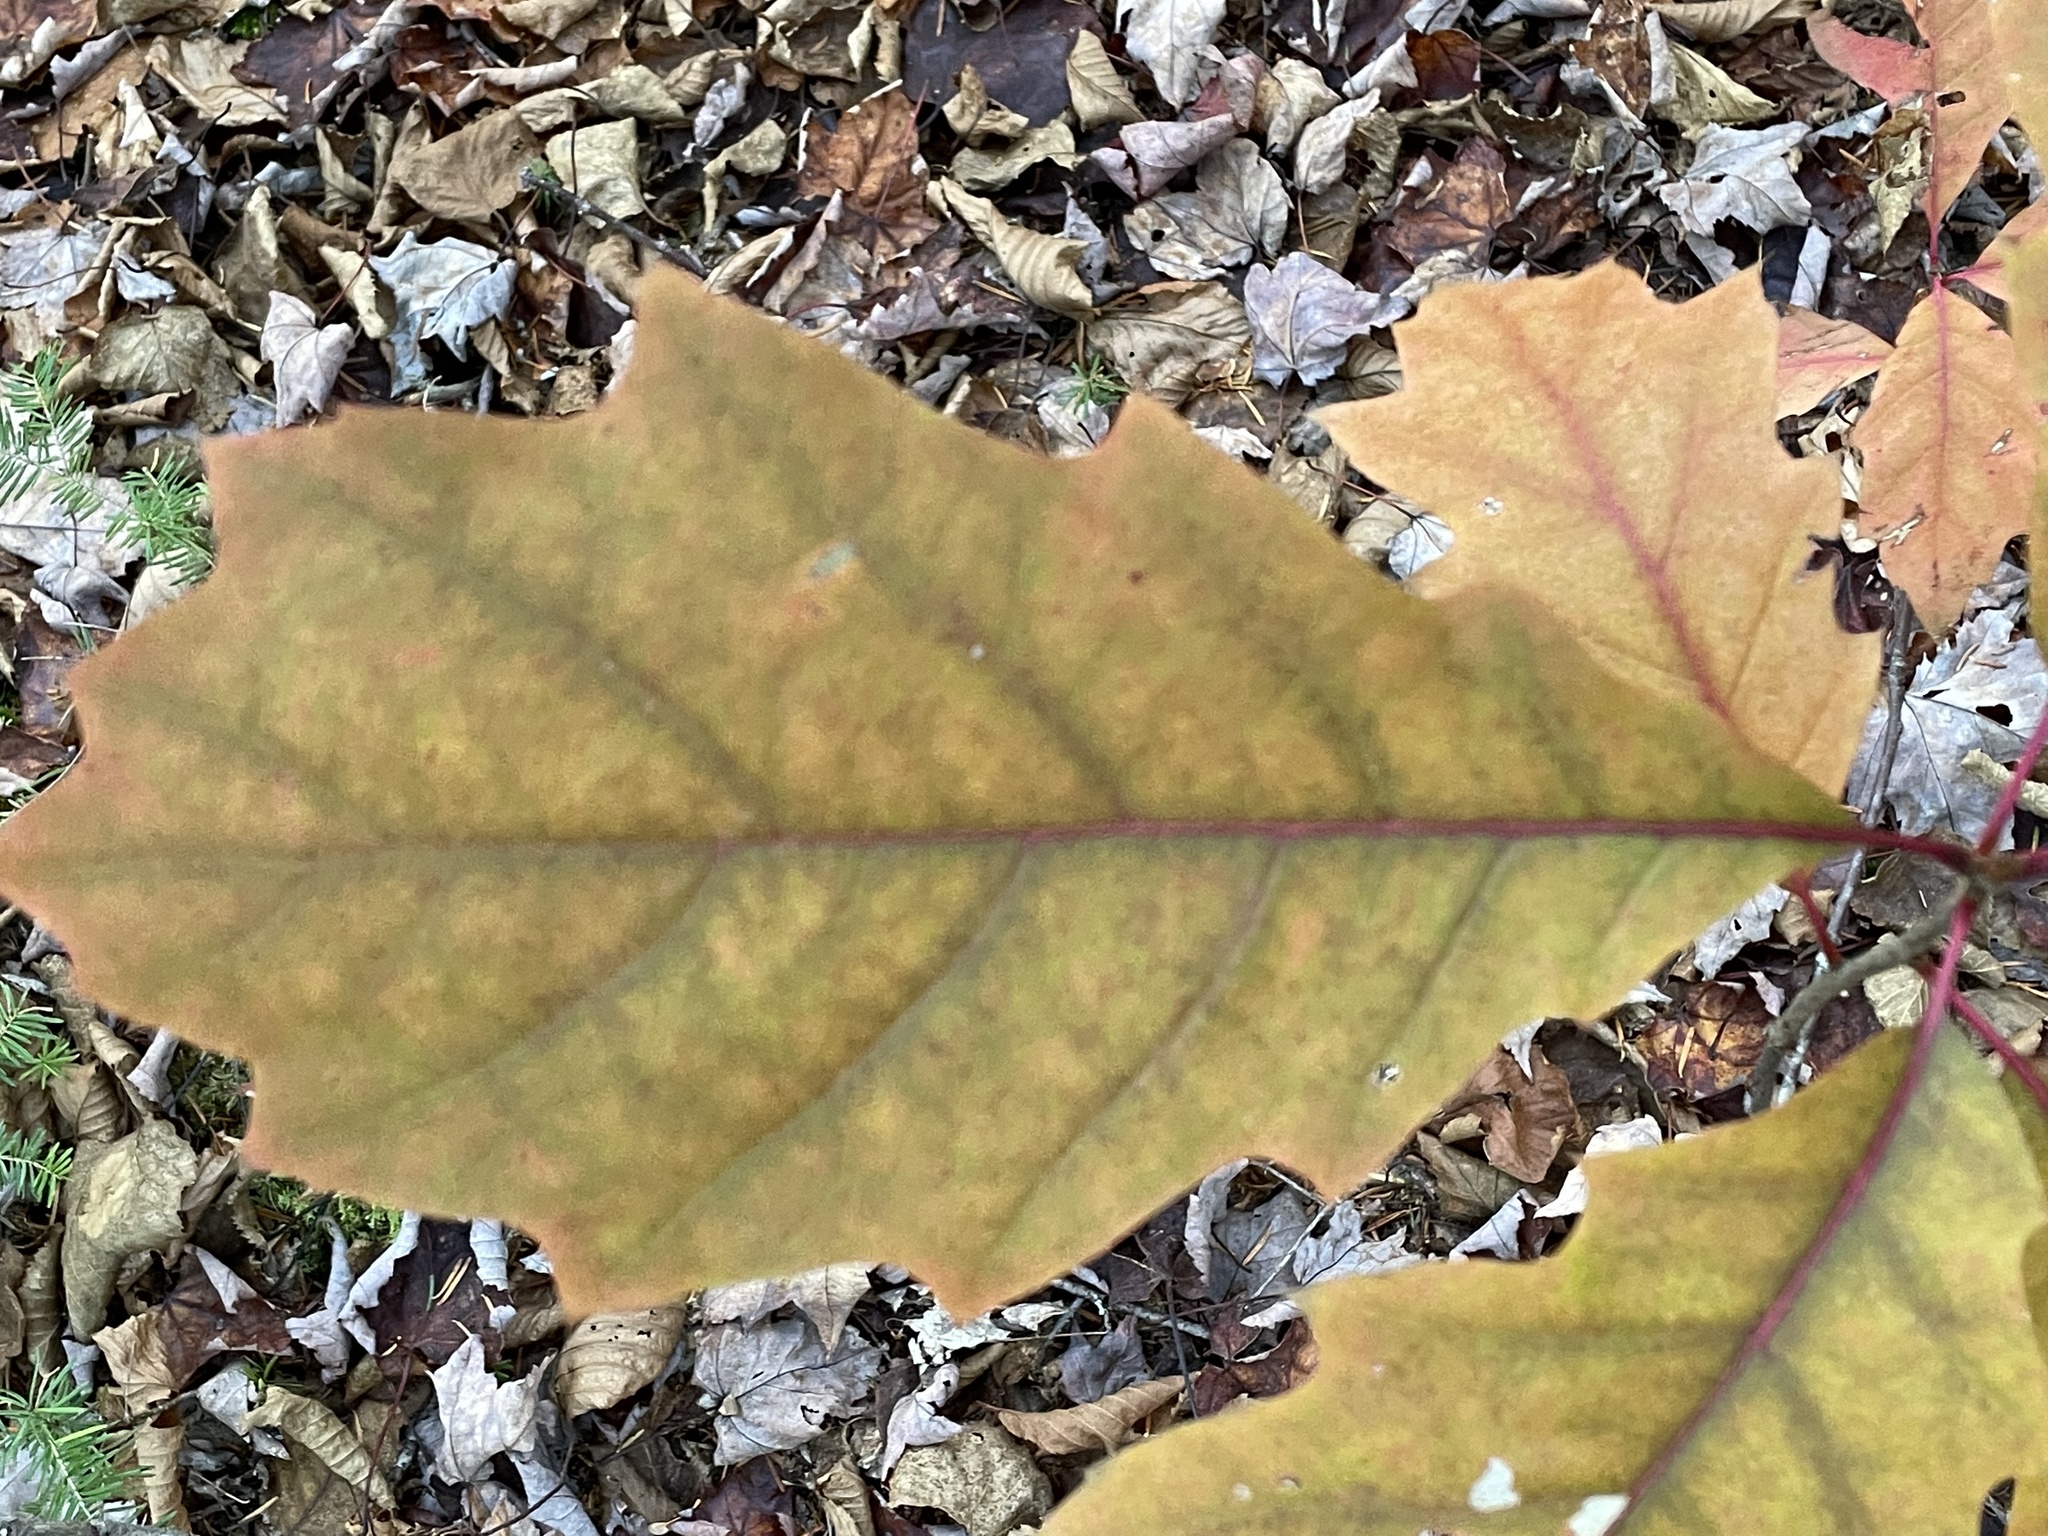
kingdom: Plantae
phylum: Tracheophyta
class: Magnoliopsida
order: Fagales
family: Fagaceae
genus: Quercus
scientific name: Quercus rubra
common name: Red oak
